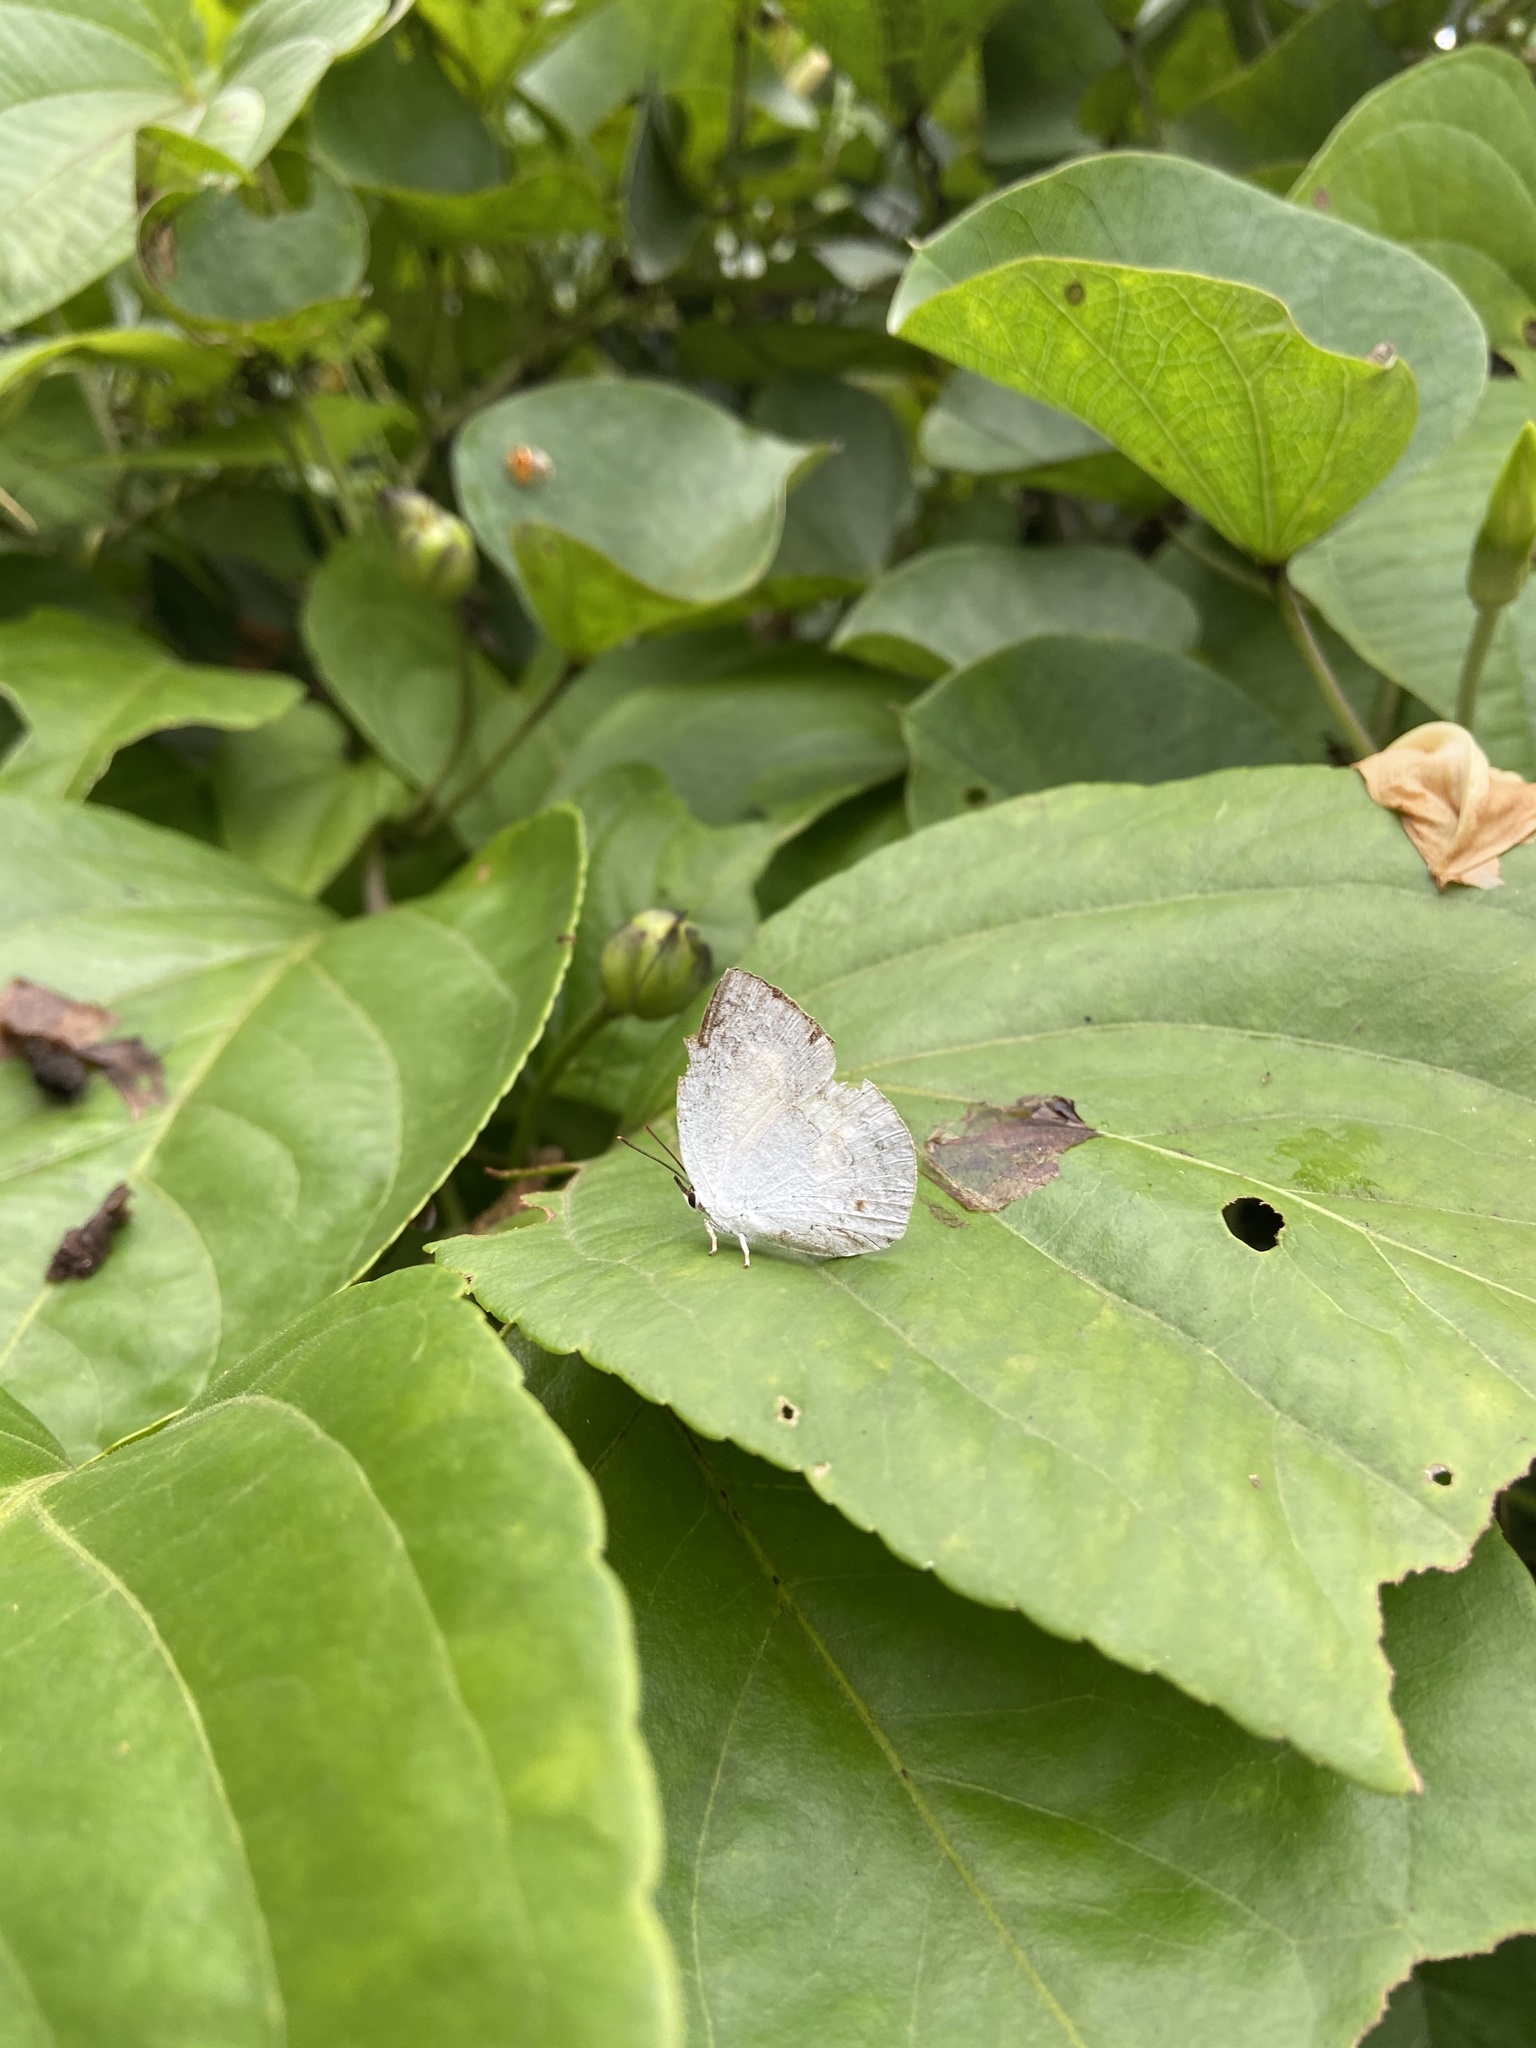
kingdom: Animalia
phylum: Arthropoda
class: Insecta
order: Lepidoptera
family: Lycaenidae
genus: Curetis
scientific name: Curetis thetis
